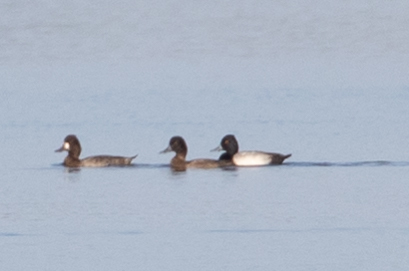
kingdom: Animalia
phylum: Chordata
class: Aves
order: Anseriformes
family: Anatidae
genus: Aythya
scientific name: Aythya affinis
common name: Lesser scaup
